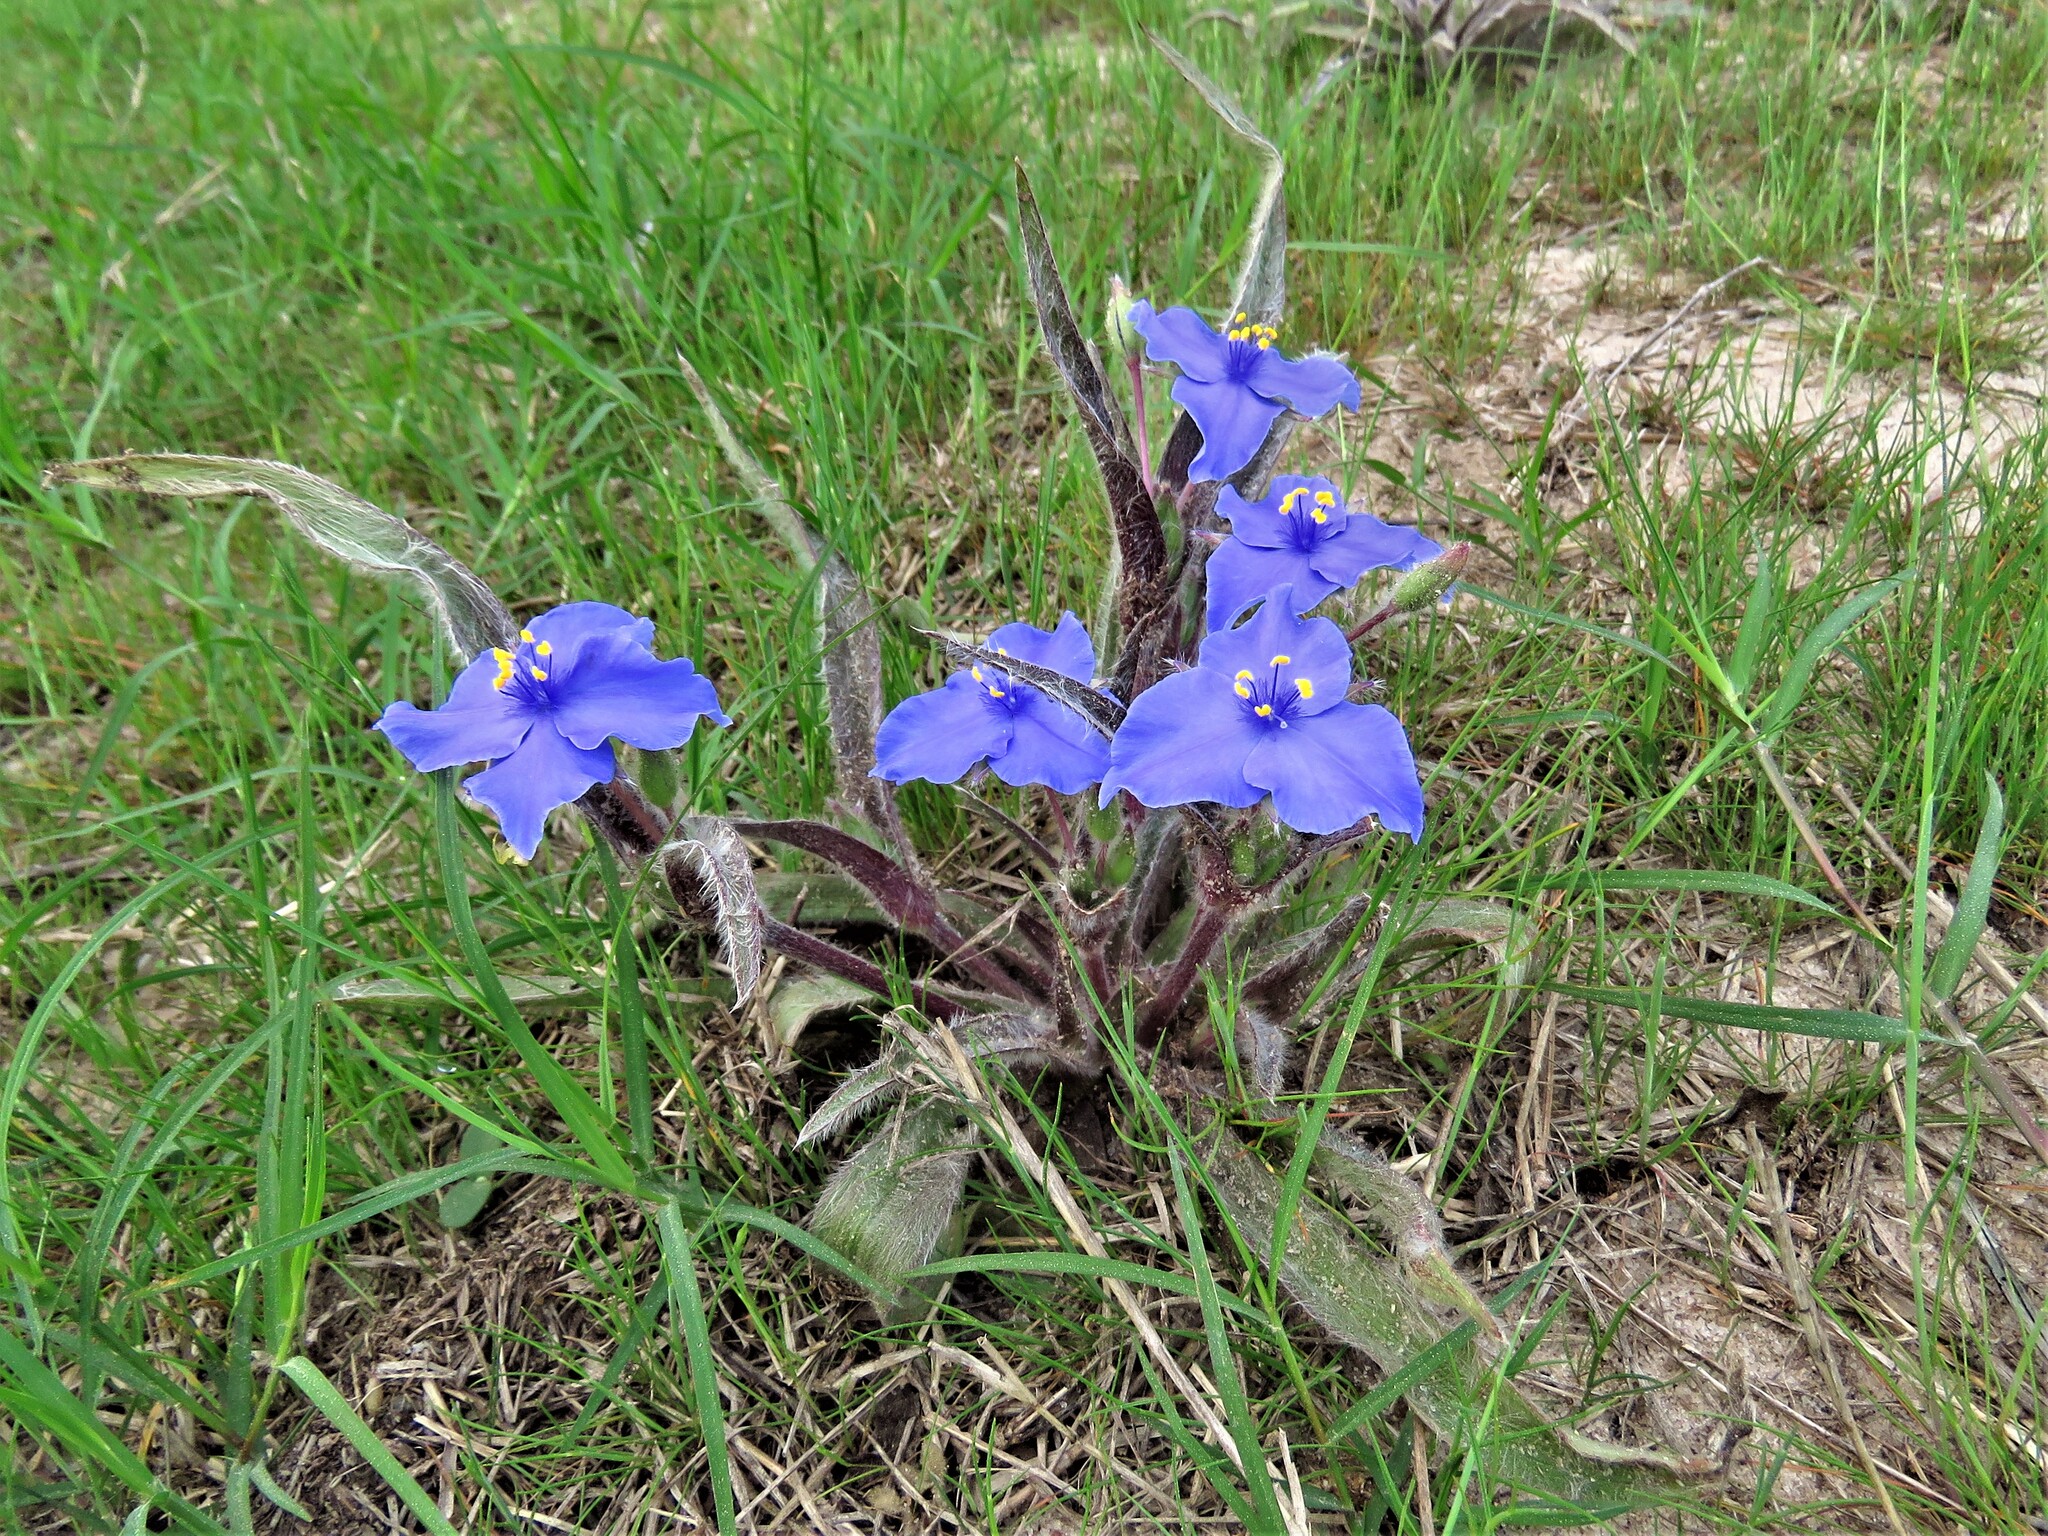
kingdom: Plantae
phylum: Tracheophyta
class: Liliopsida
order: Commelinales
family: Commelinaceae
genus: Tradescantia
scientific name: Tradescantia subacaulis
